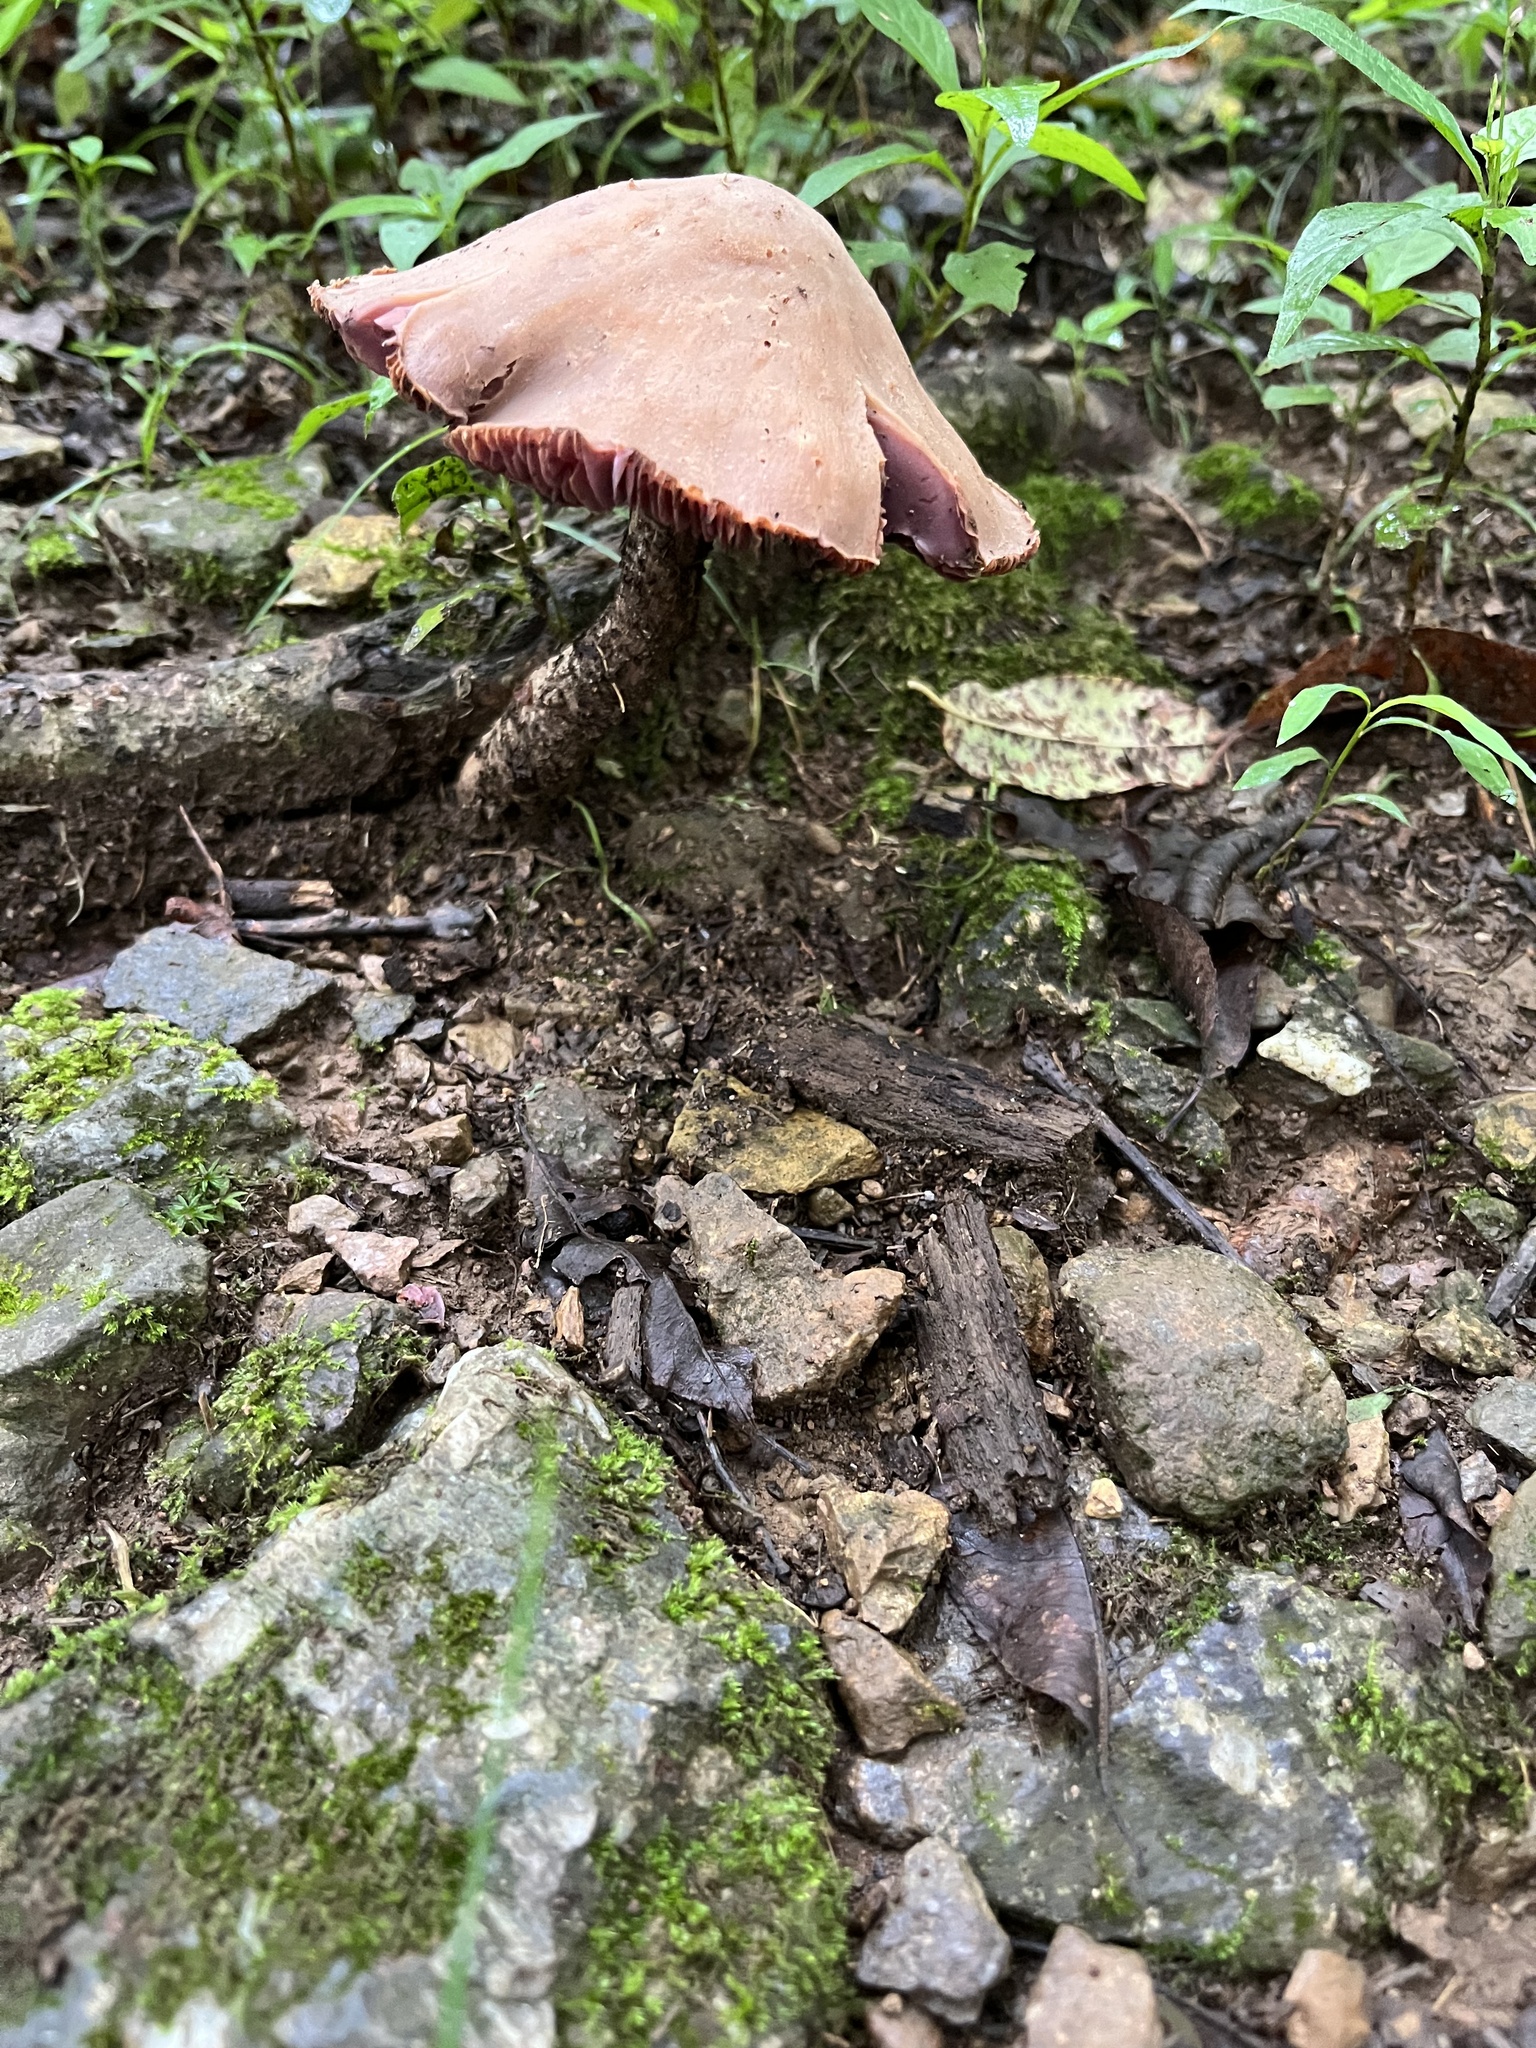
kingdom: Fungi
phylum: Basidiomycota
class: Agaricomycetes
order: Agaricales
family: Hydnangiaceae
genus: Laccaria
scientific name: Laccaria ochropurpurea
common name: Purple laccaria
